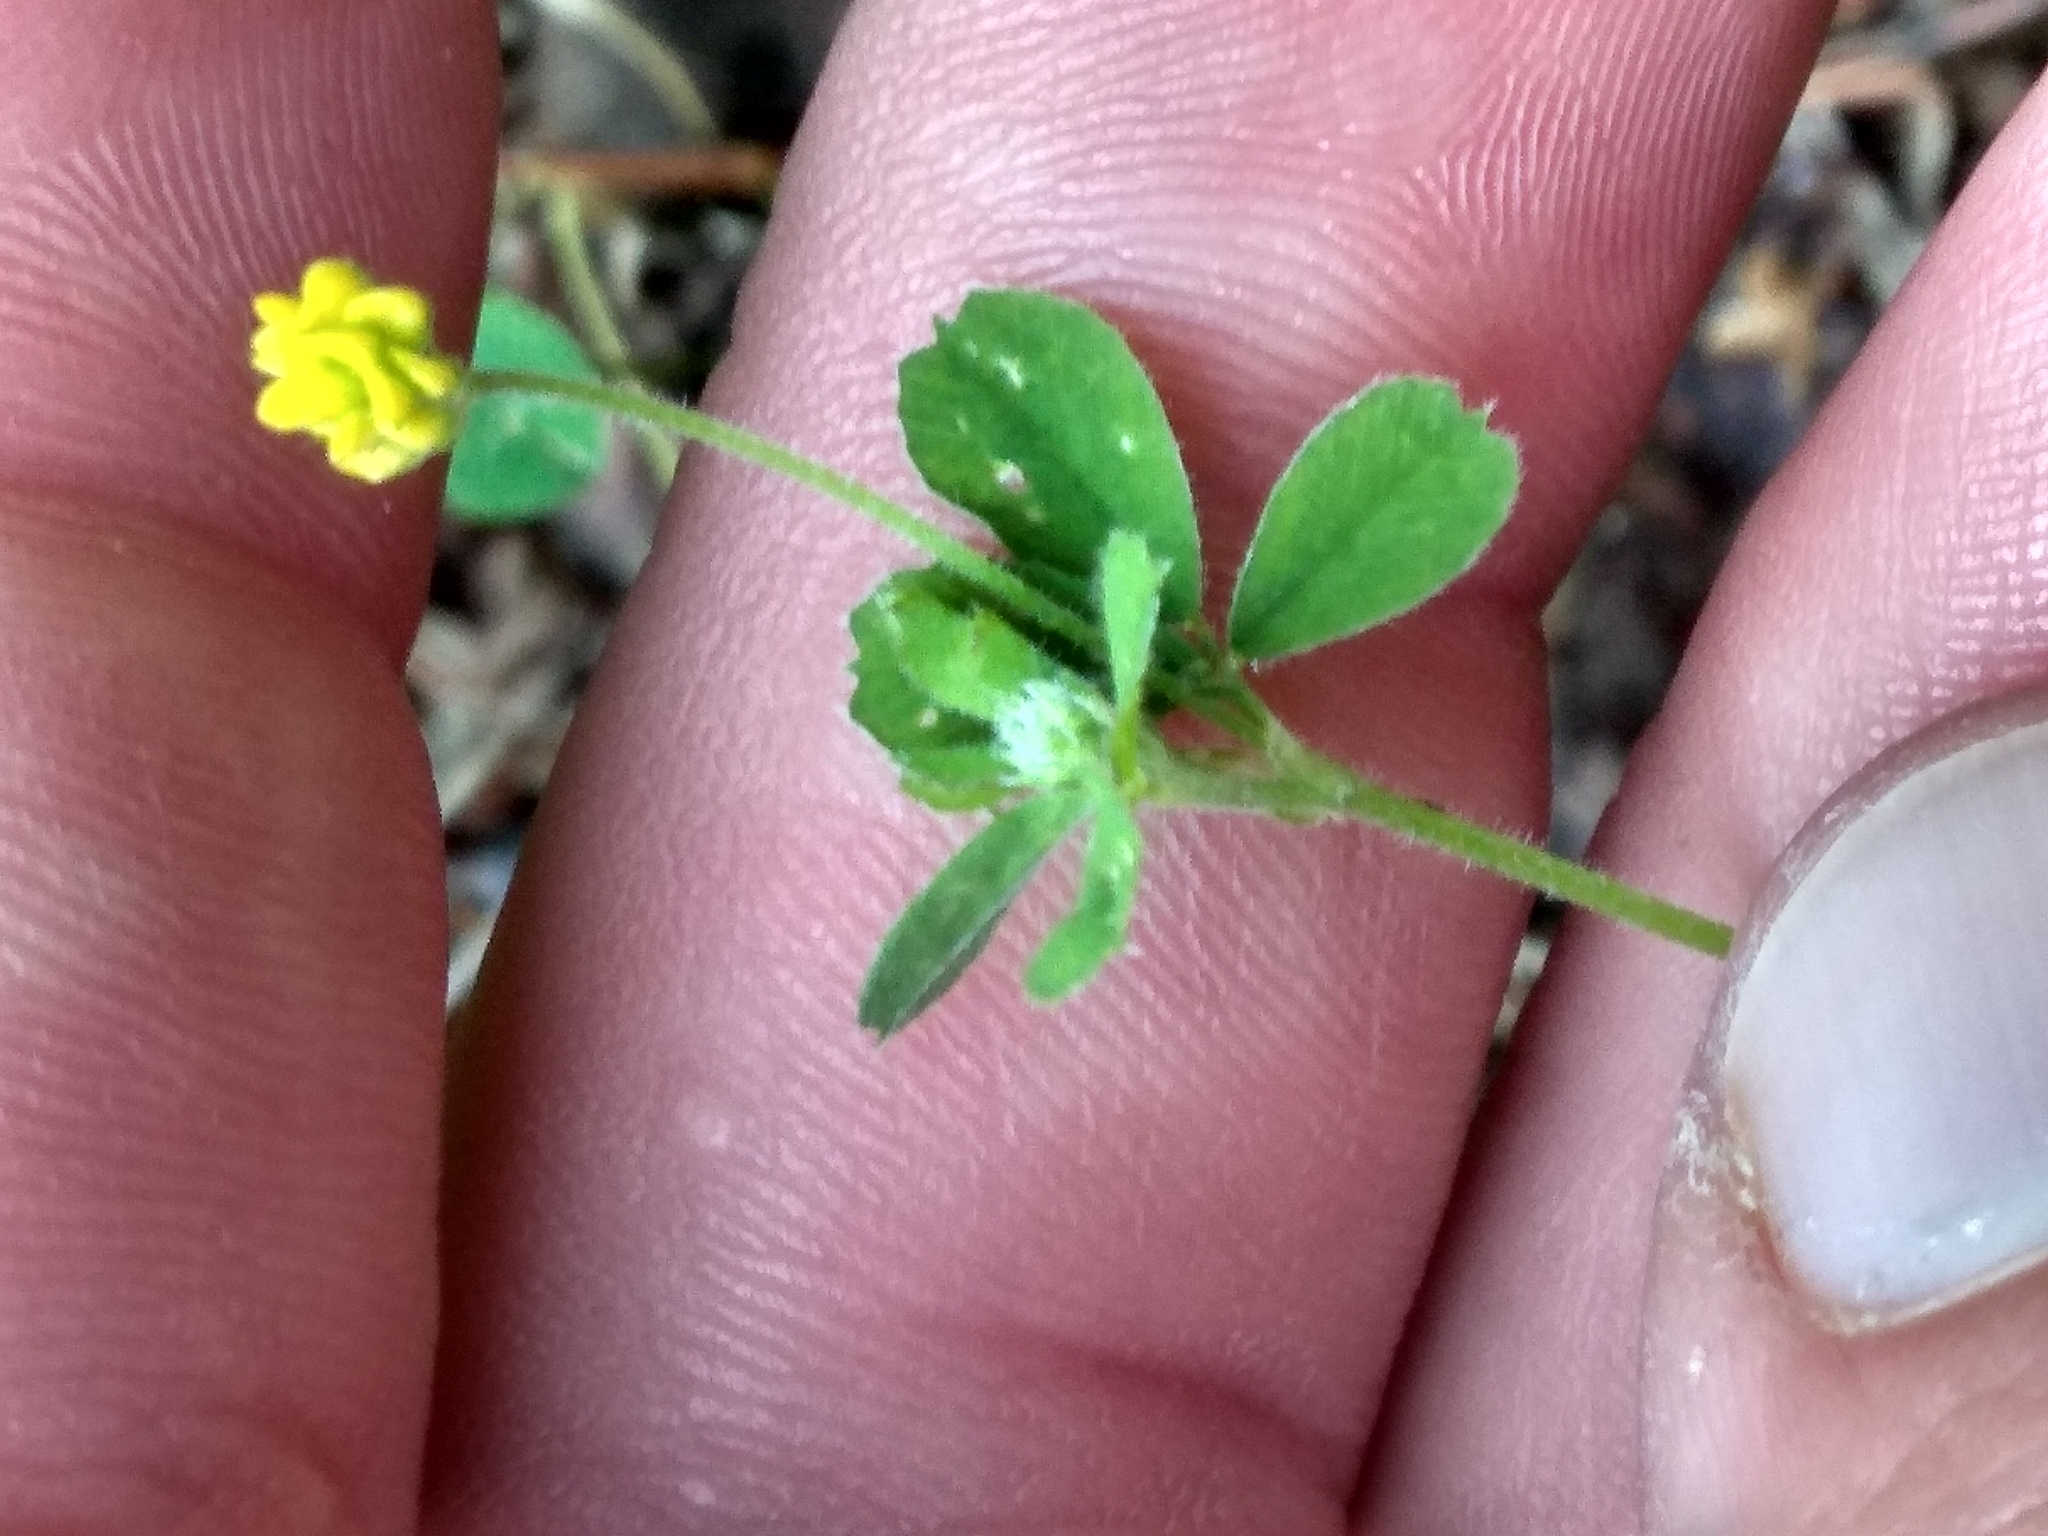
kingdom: Plantae
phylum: Tracheophyta
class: Magnoliopsida
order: Fabales
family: Fabaceae
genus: Medicago
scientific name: Medicago lupulina
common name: Black medick
